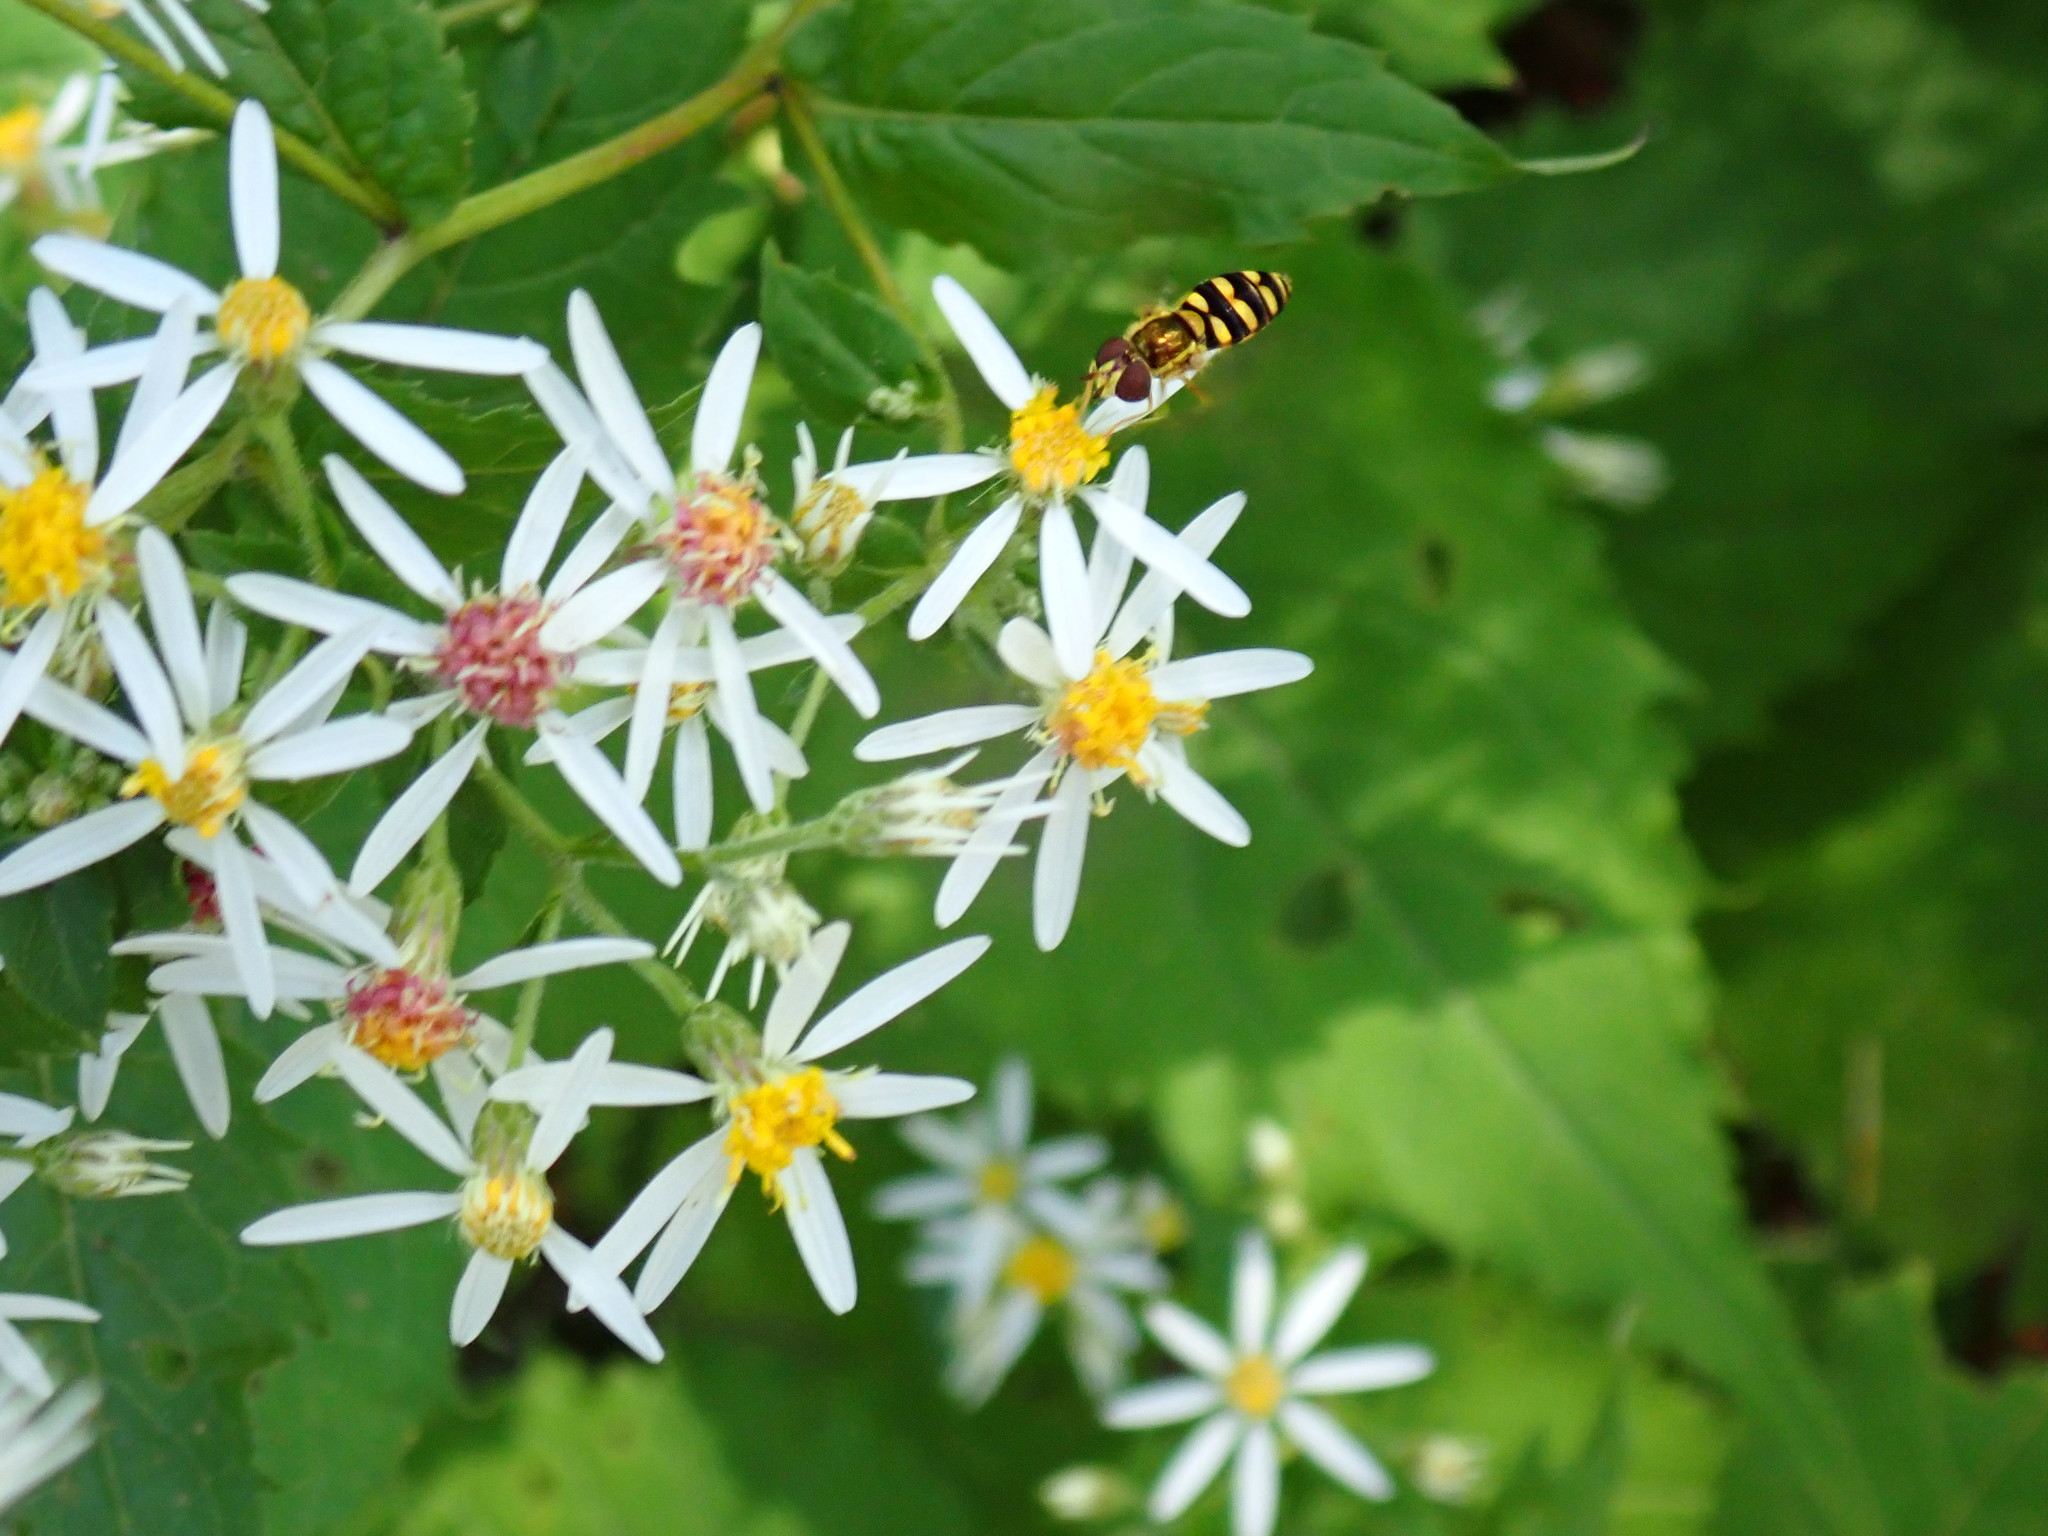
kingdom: Animalia
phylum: Arthropoda
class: Insecta
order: Diptera
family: Syrphidae
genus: Epistrophella
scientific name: Epistrophella emarginata
